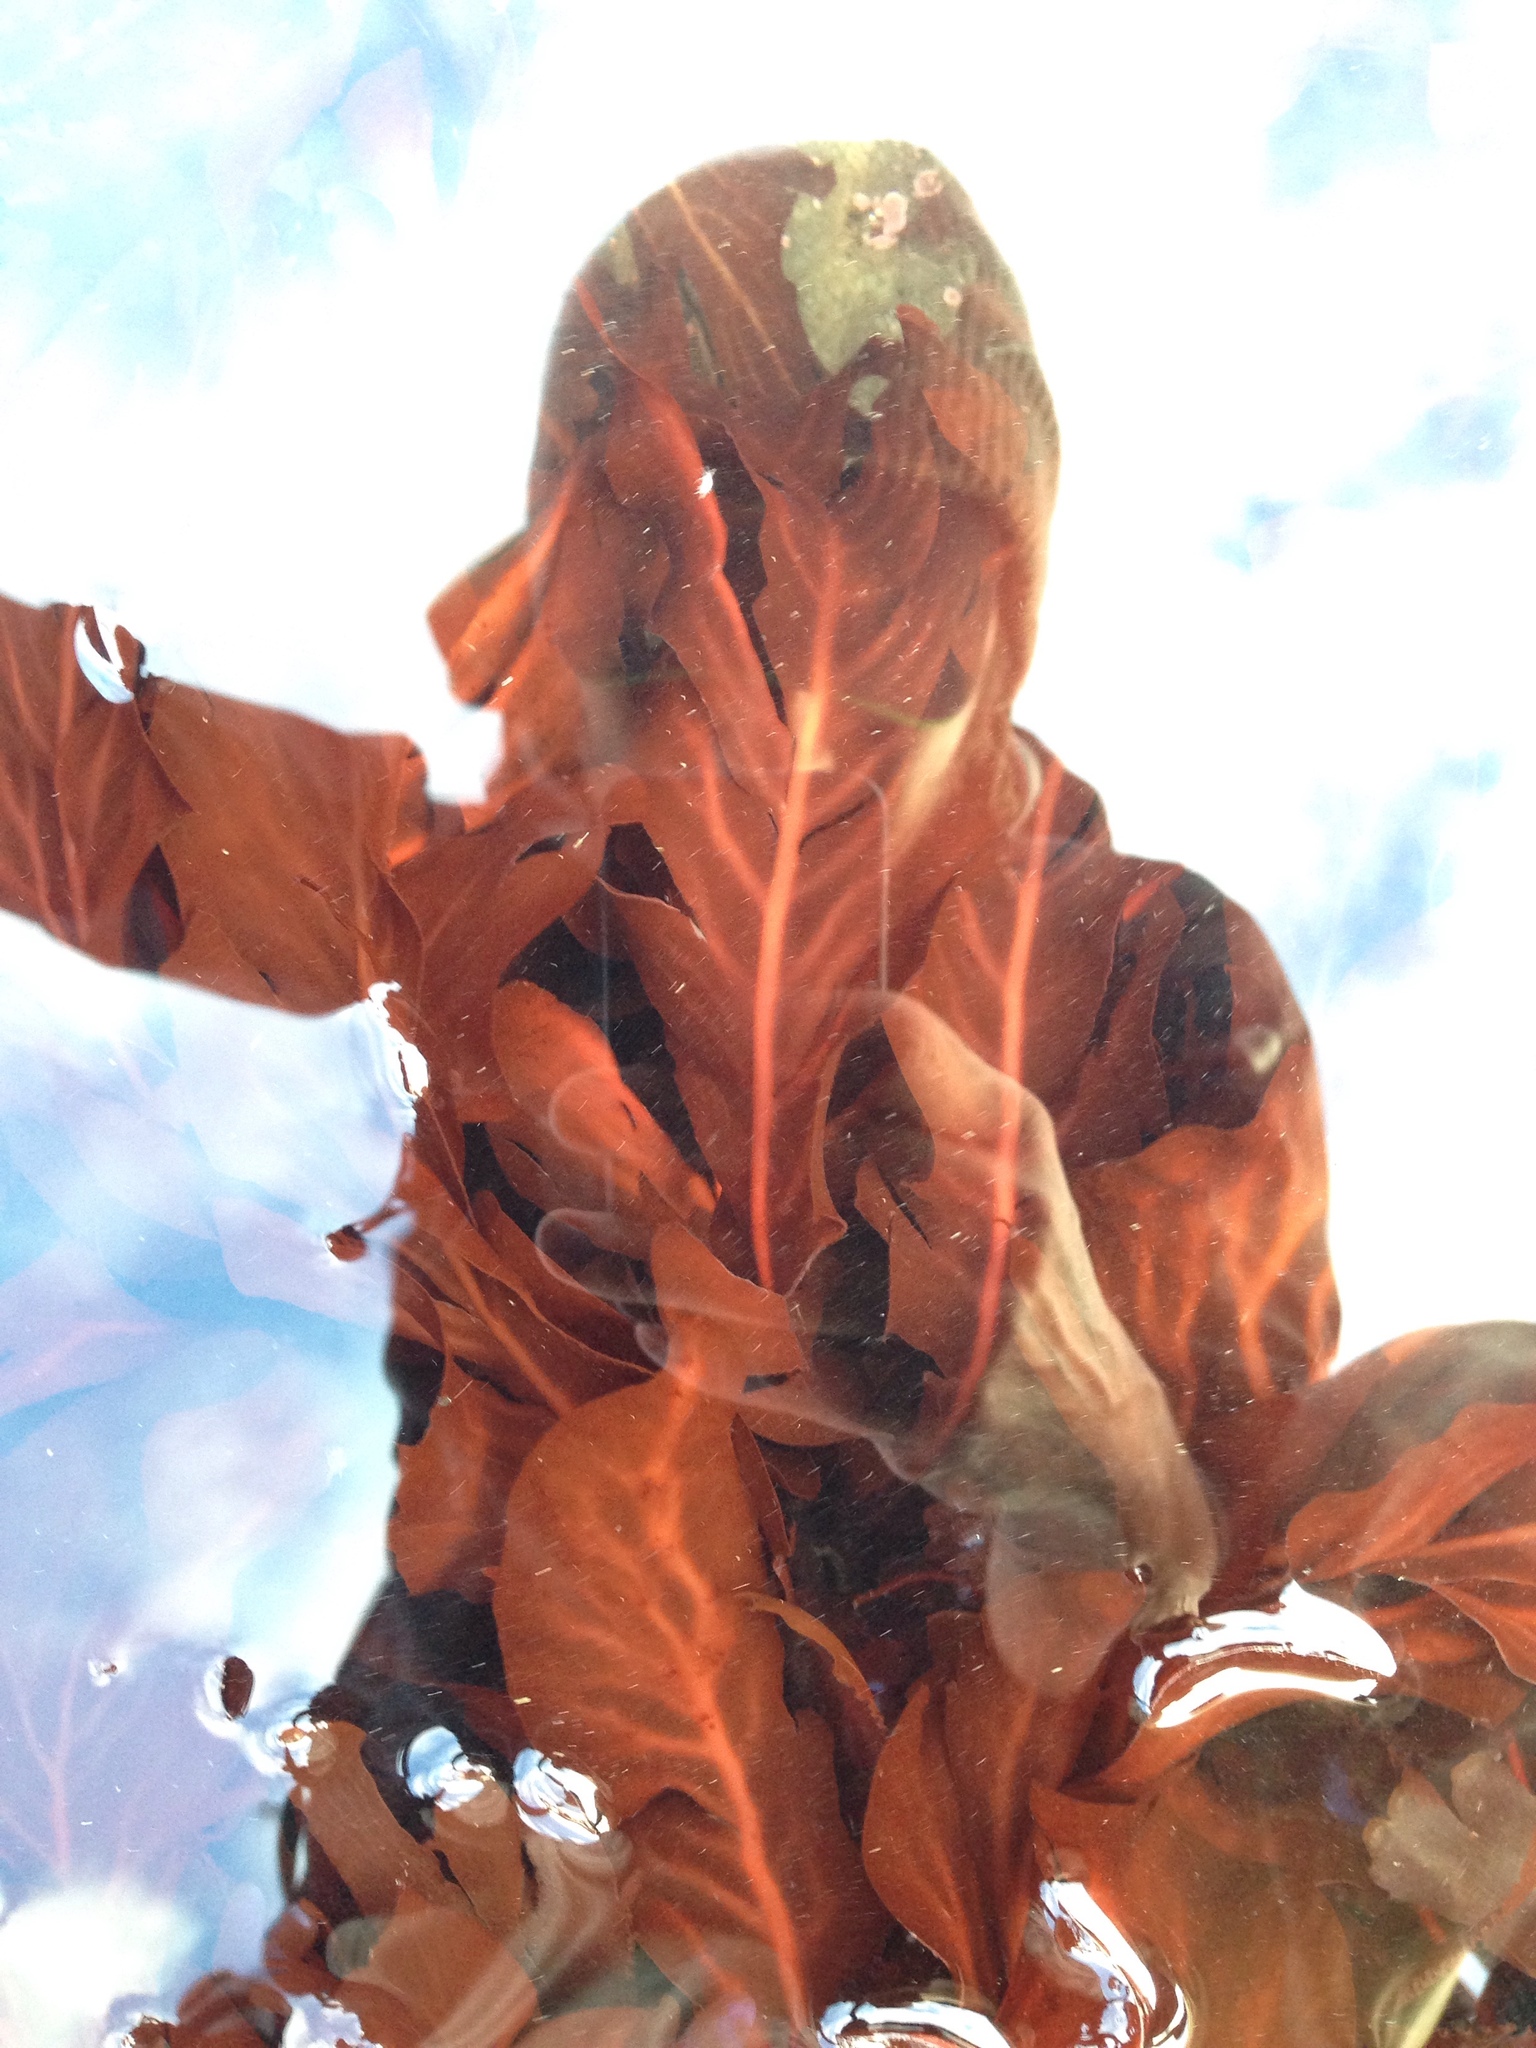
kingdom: Plantae
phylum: Rhodophyta
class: Florideophyceae
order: Gigartinales
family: Kallymeniaceae
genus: Erythrophyllum
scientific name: Erythrophyllum delesserioides
